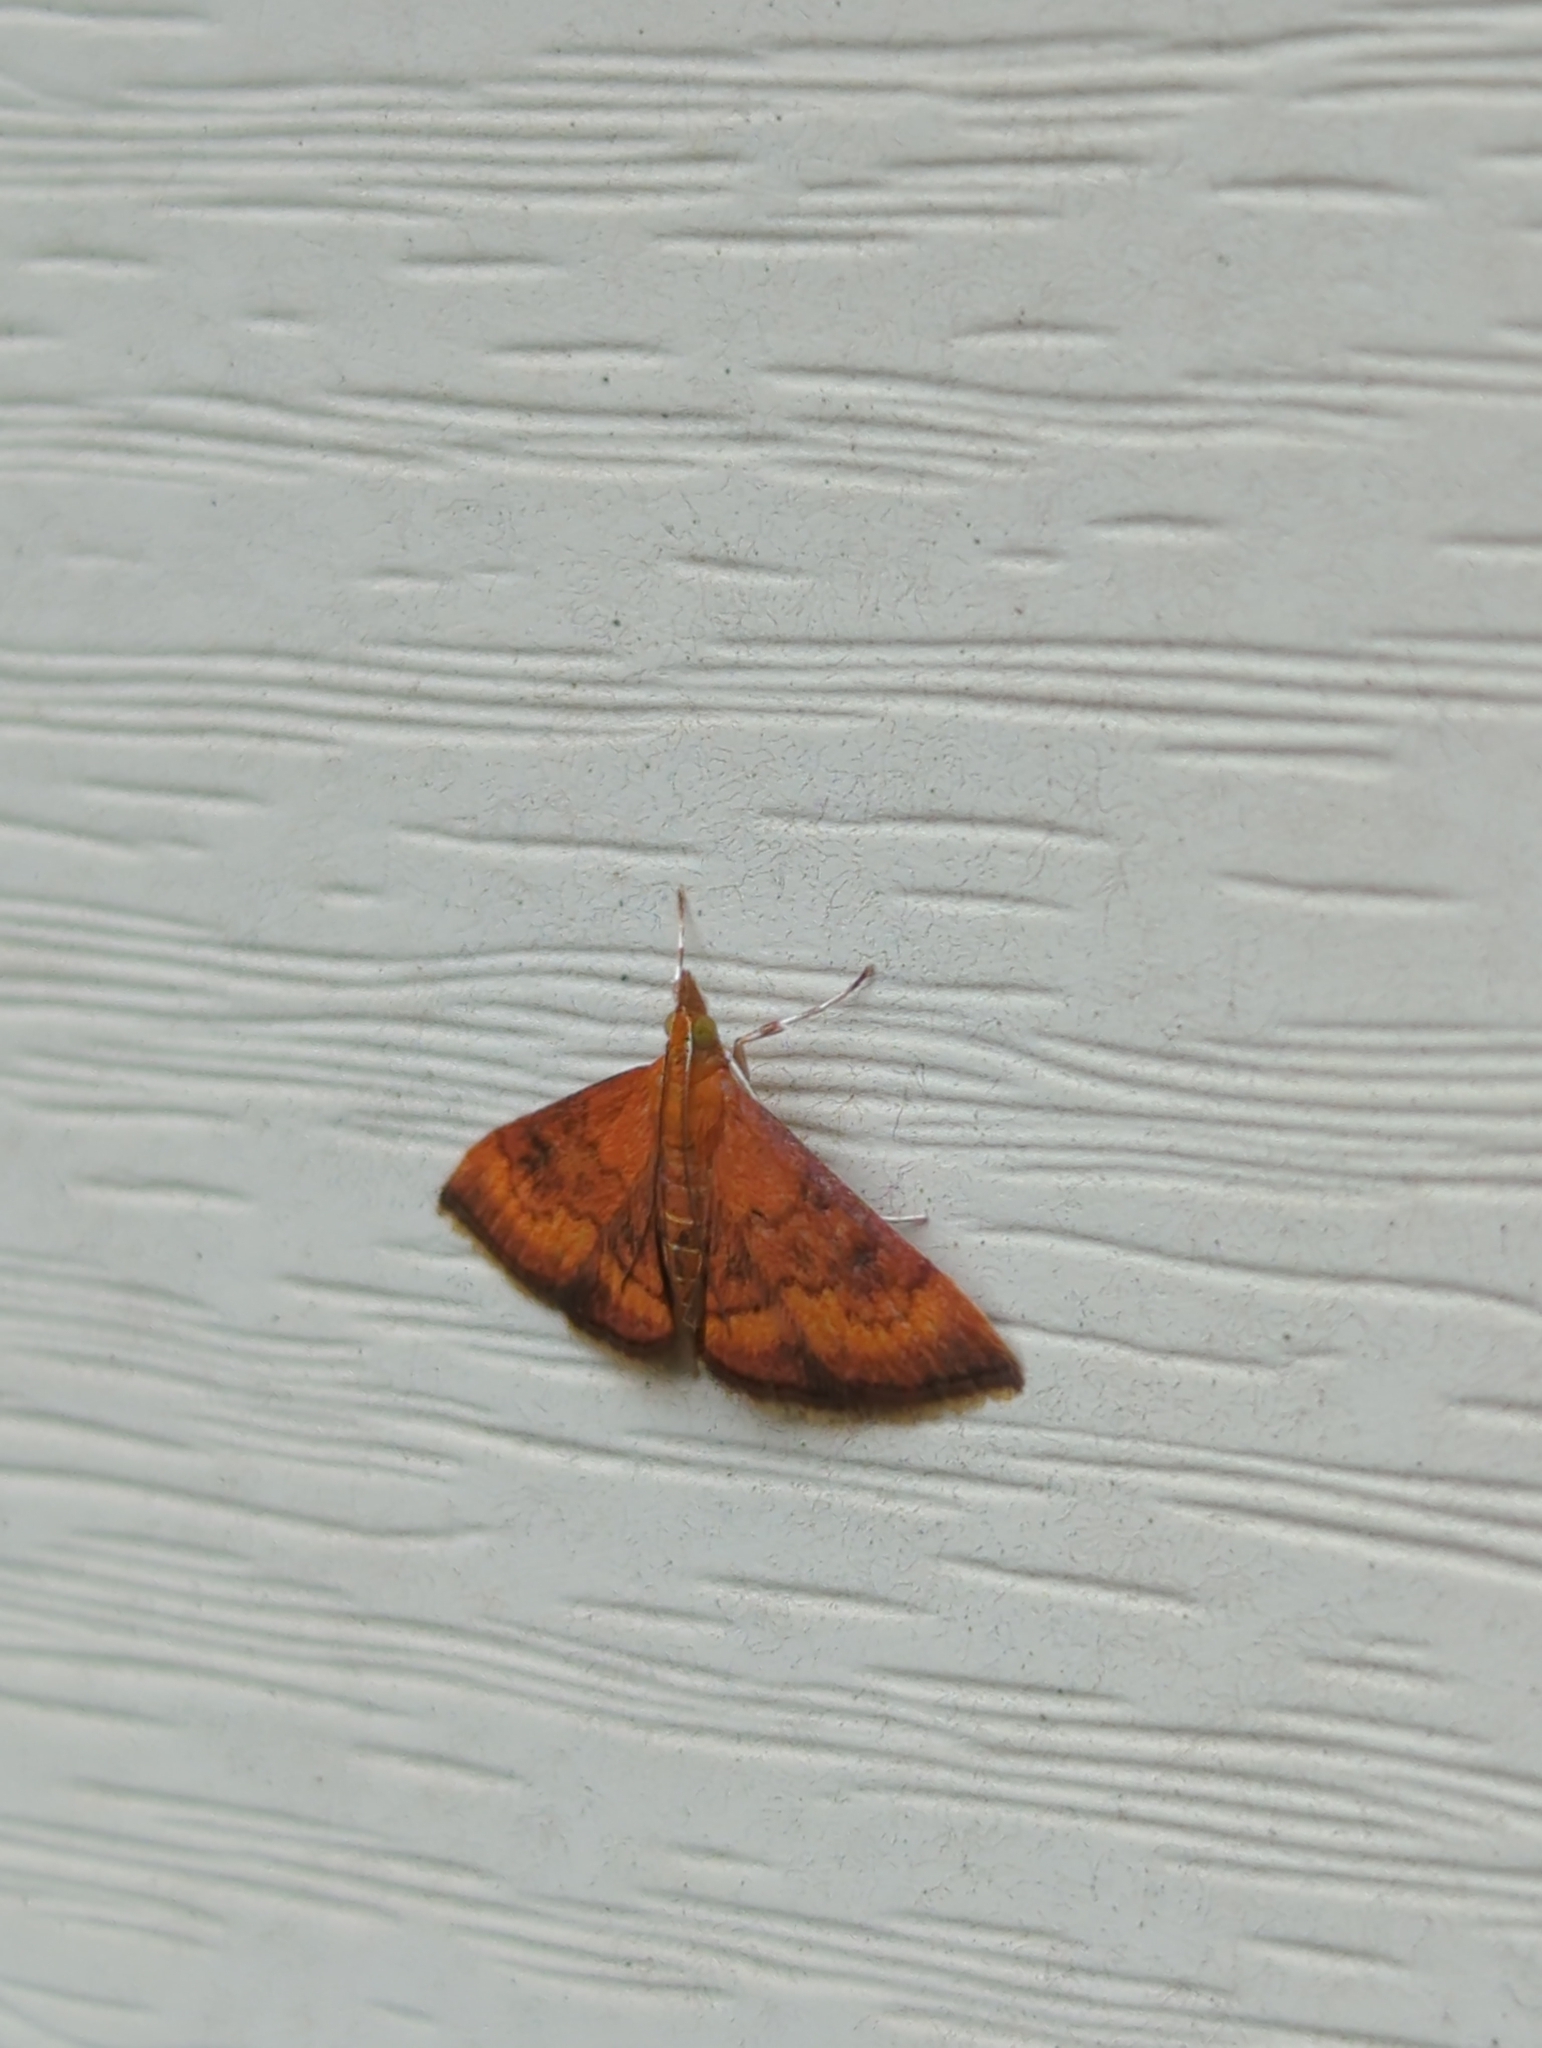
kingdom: Animalia
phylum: Arthropoda
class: Insecta
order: Lepidoptera
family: Crambidae
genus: Pyrausta
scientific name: Pyrausta rubricalis
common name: Variable reddish pyrausta
